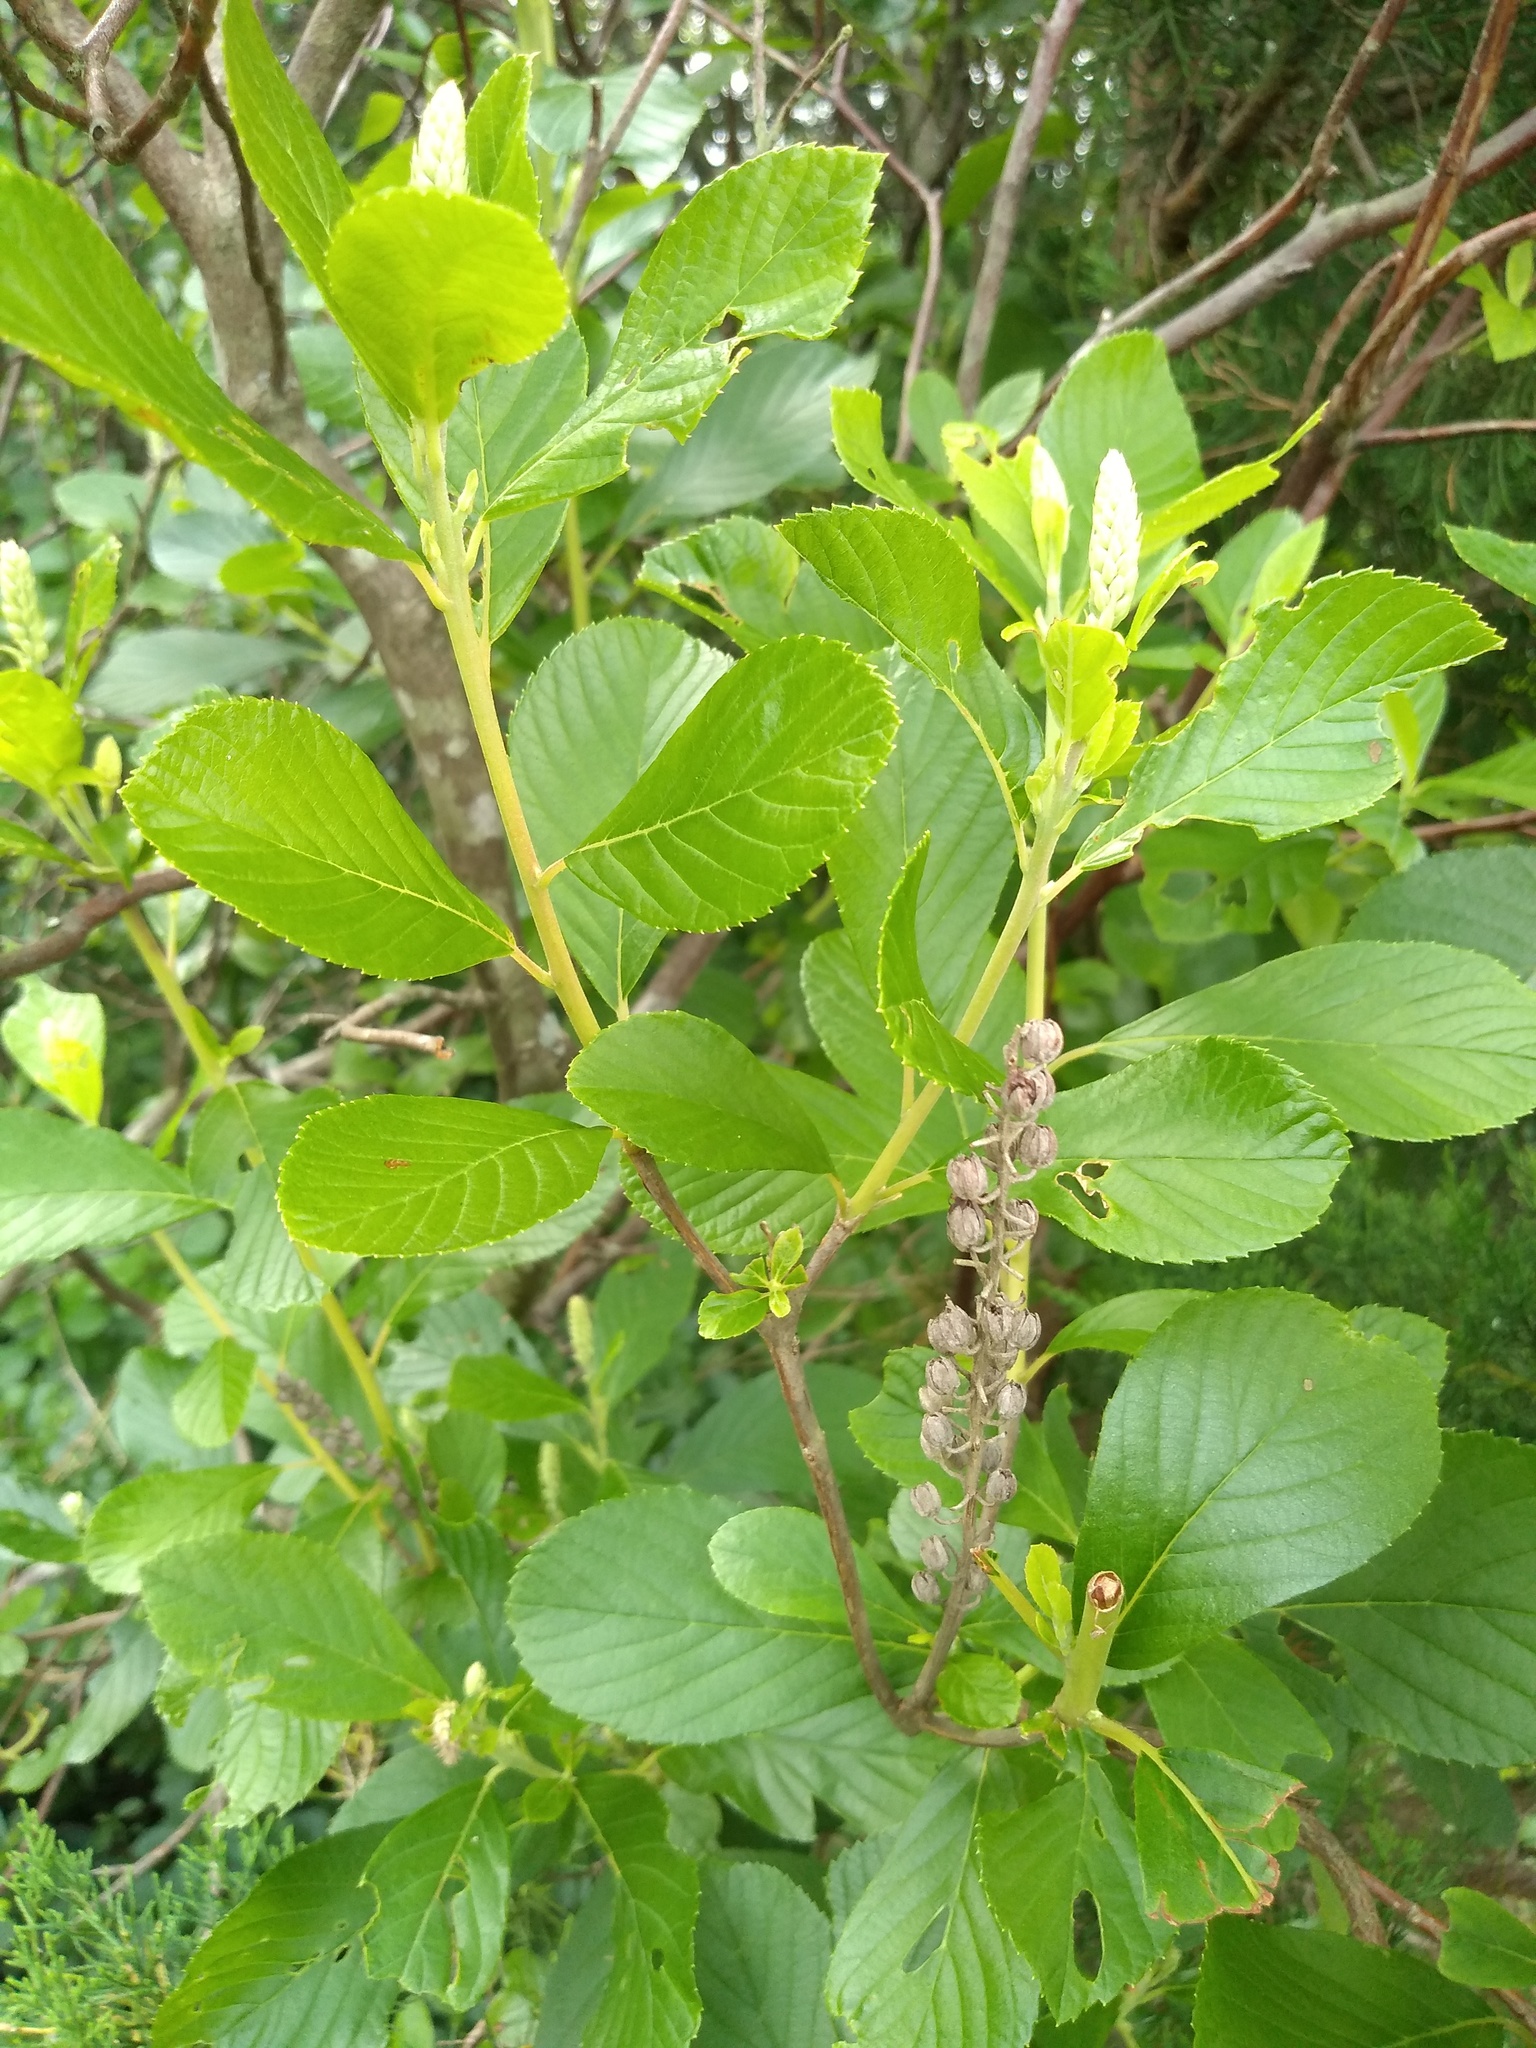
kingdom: Plantae
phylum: Tracheophyta
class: Magnoliopsida
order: Ericales
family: Clethraceae
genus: Clethra
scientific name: Clethra alnifolia
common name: Sweet pepperbush
